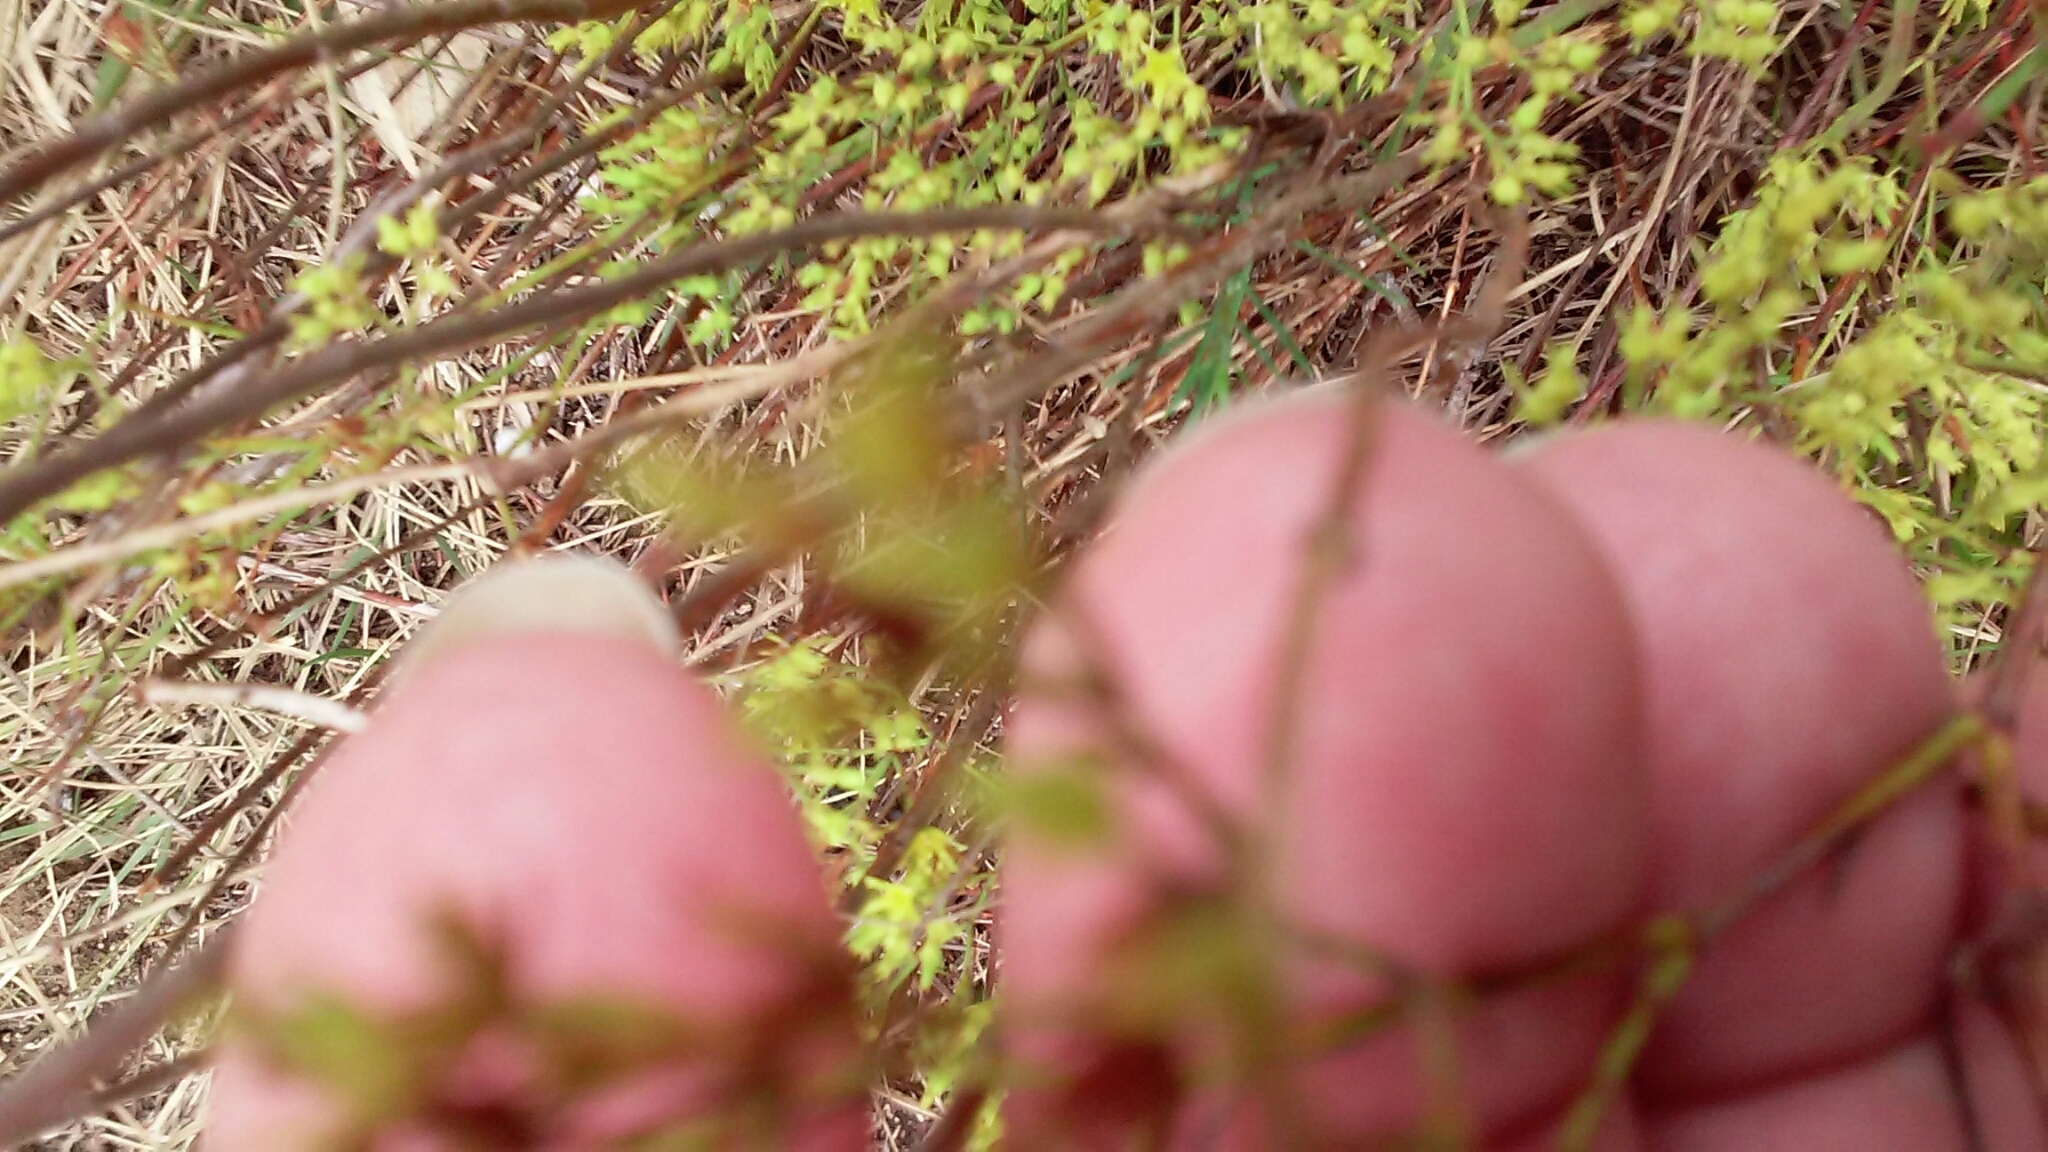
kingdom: Plantae
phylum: Tracheophyta
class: Magnoliopsida
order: Caryophyllales
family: Caryophyllaceae
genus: Paronychia
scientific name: Paronychia virginica
